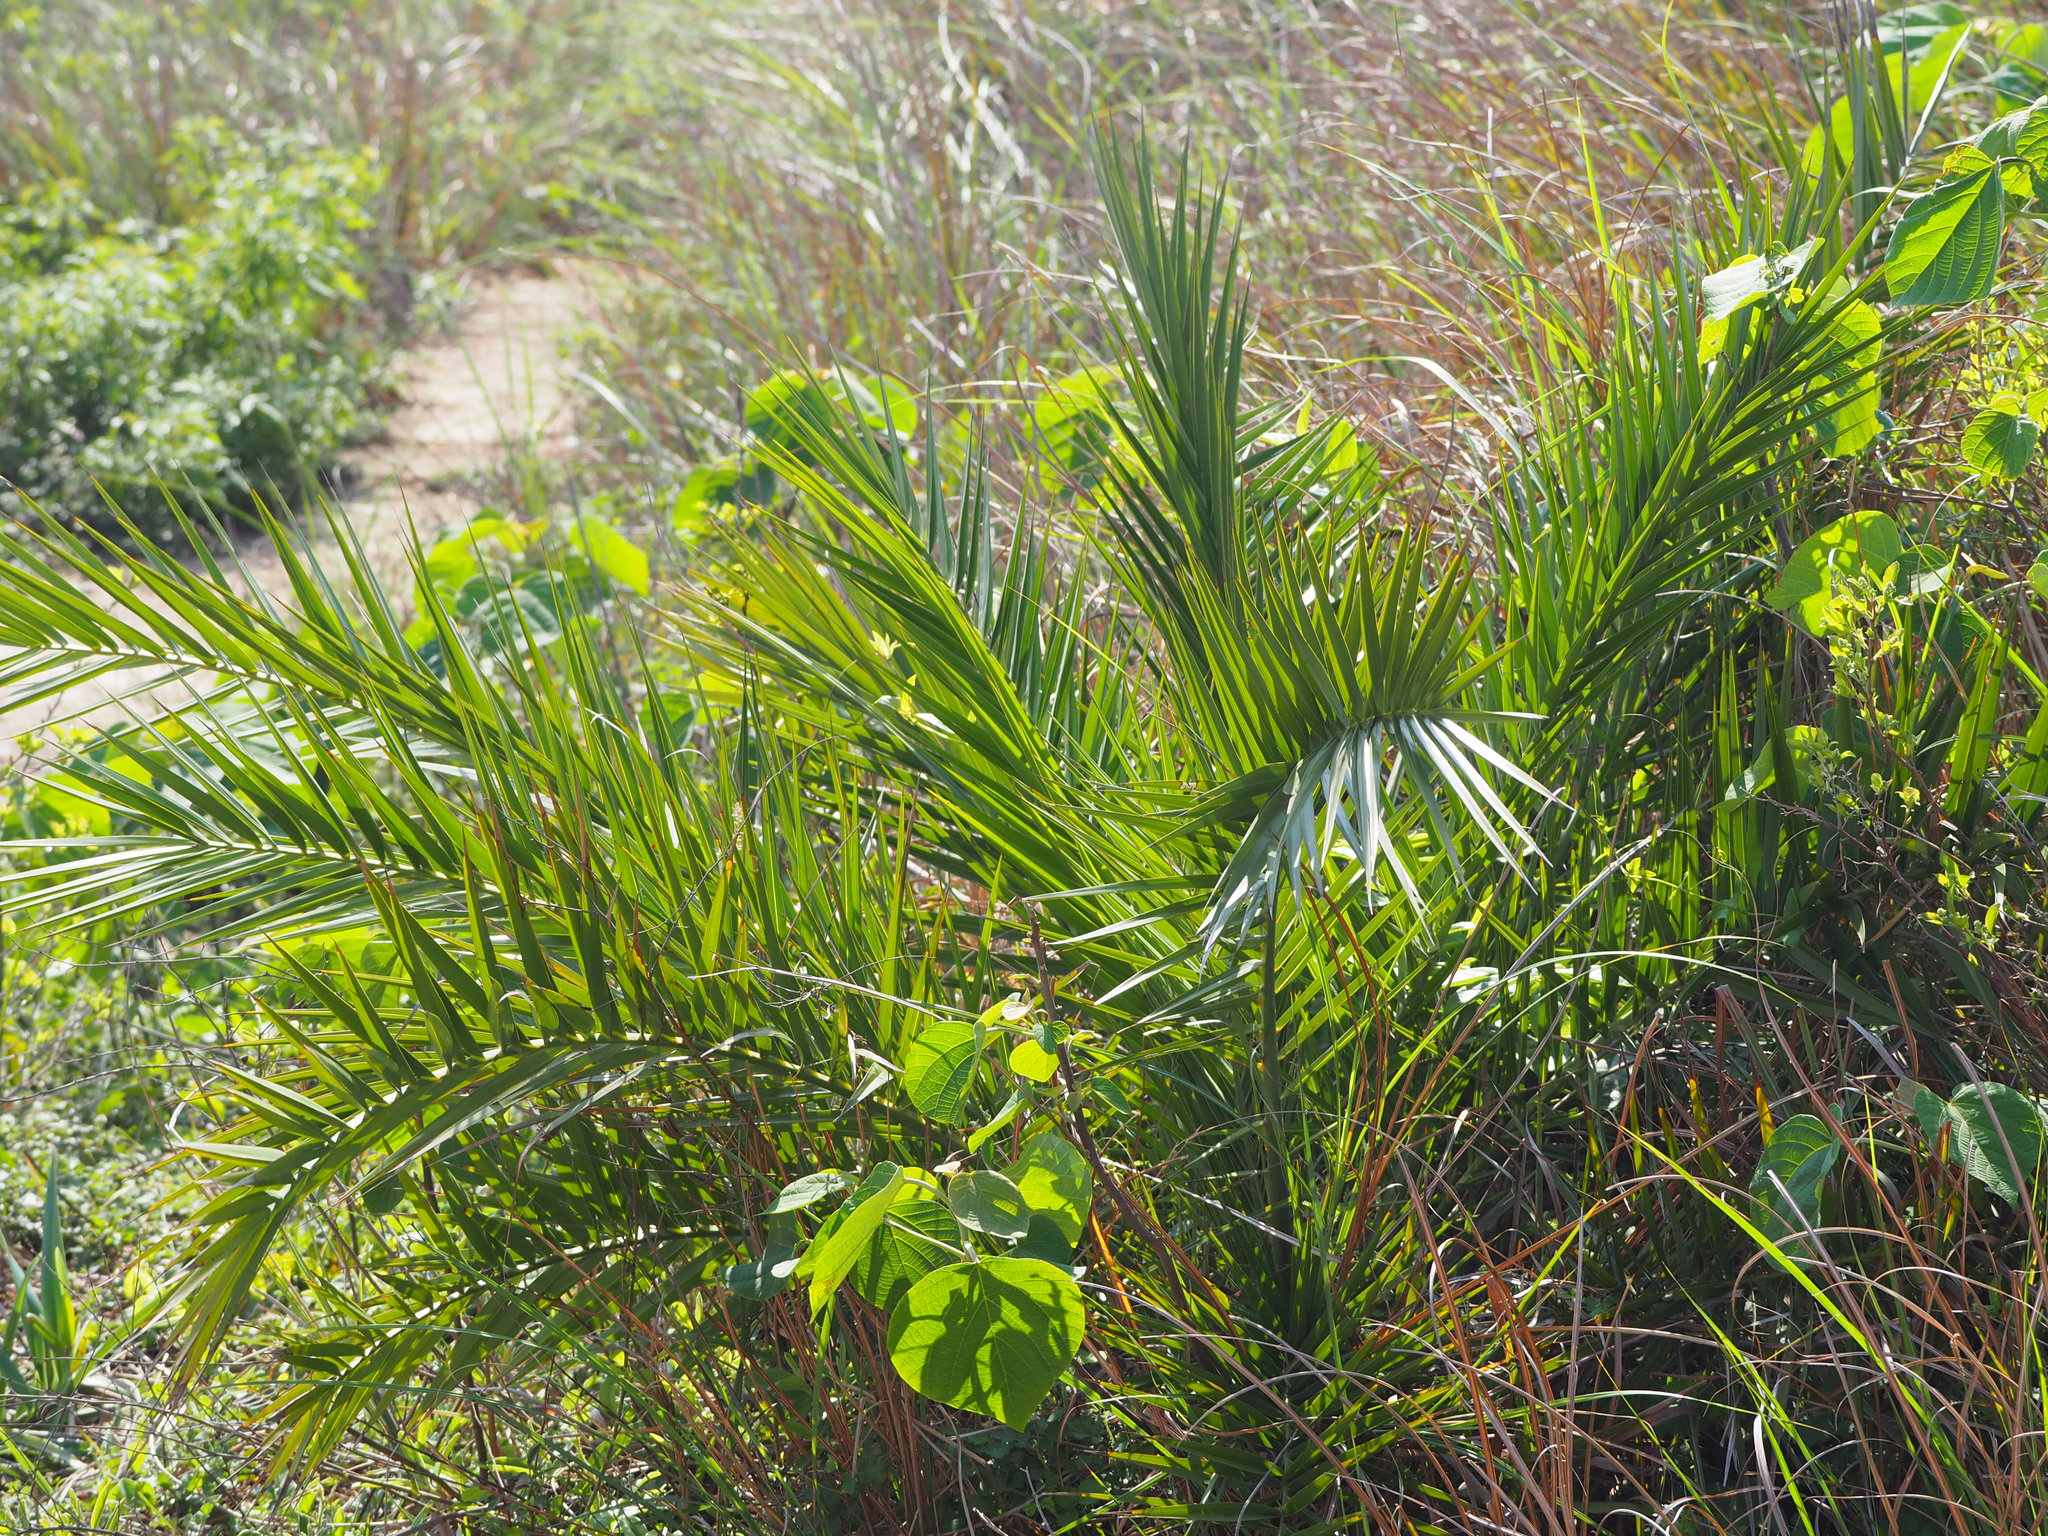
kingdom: Plantae
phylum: Tracheophyta
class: Liliopsida
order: Arecales
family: Arecaceae
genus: Phoenix
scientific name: Phoenix loureiroi
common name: Loureiro's palm
